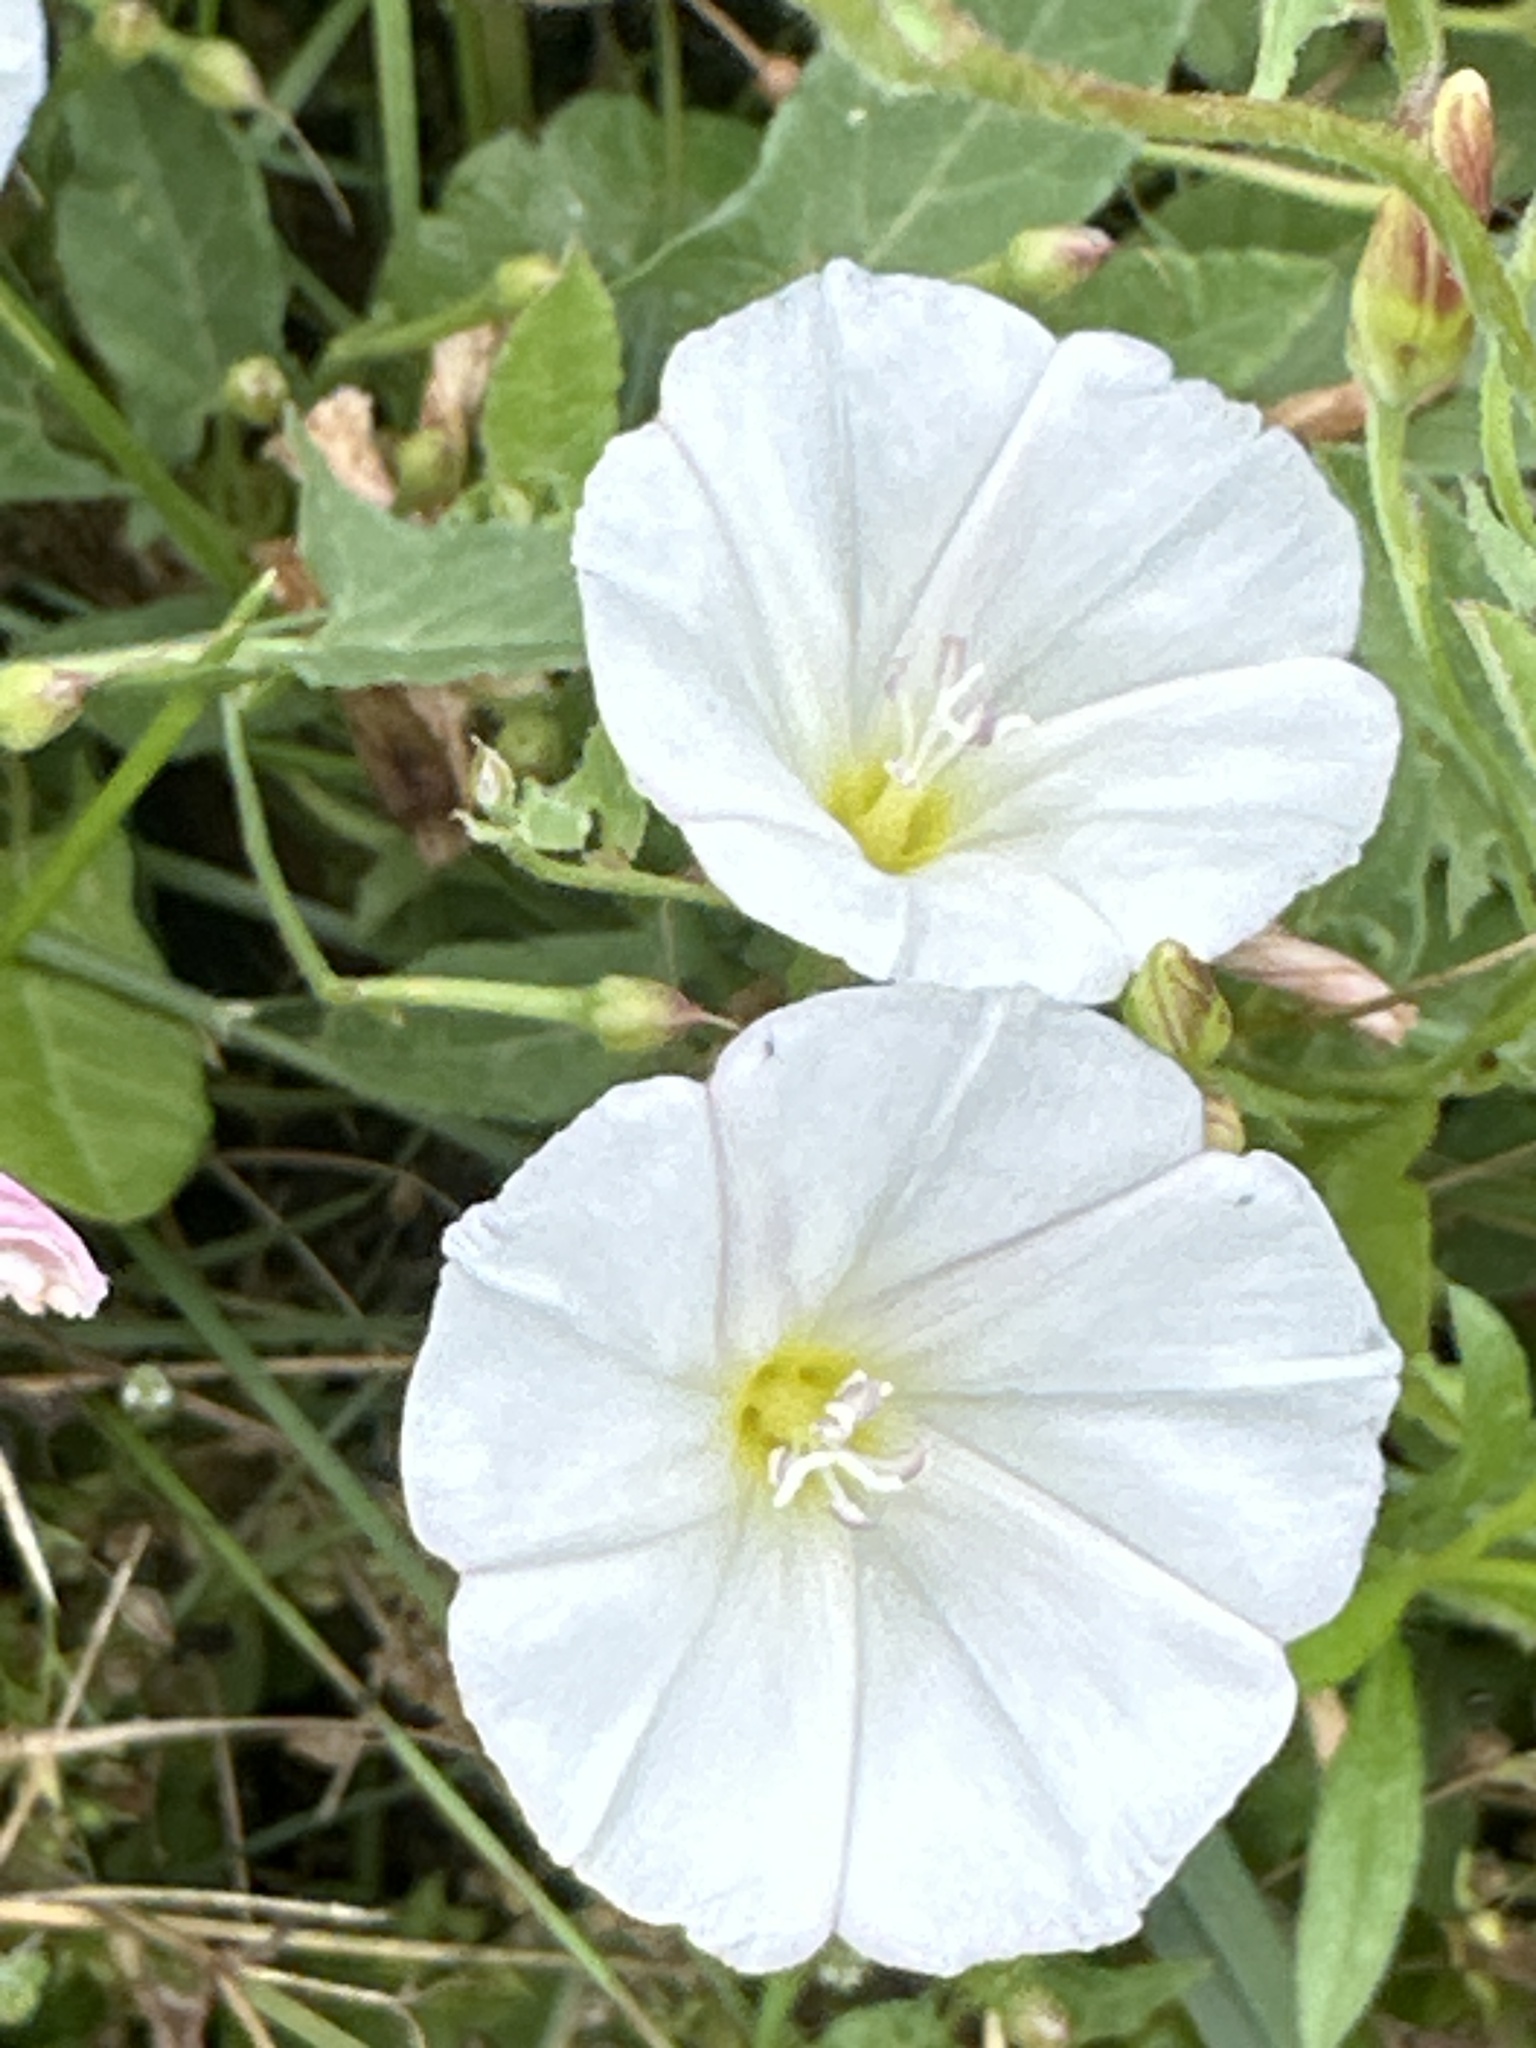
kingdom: Plantae
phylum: Tracheophyta
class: Magnoliopsida
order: Solanales
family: Convolvulaceae
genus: Convolvulus
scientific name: Convolvulus arvensis
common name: Field bindweed
